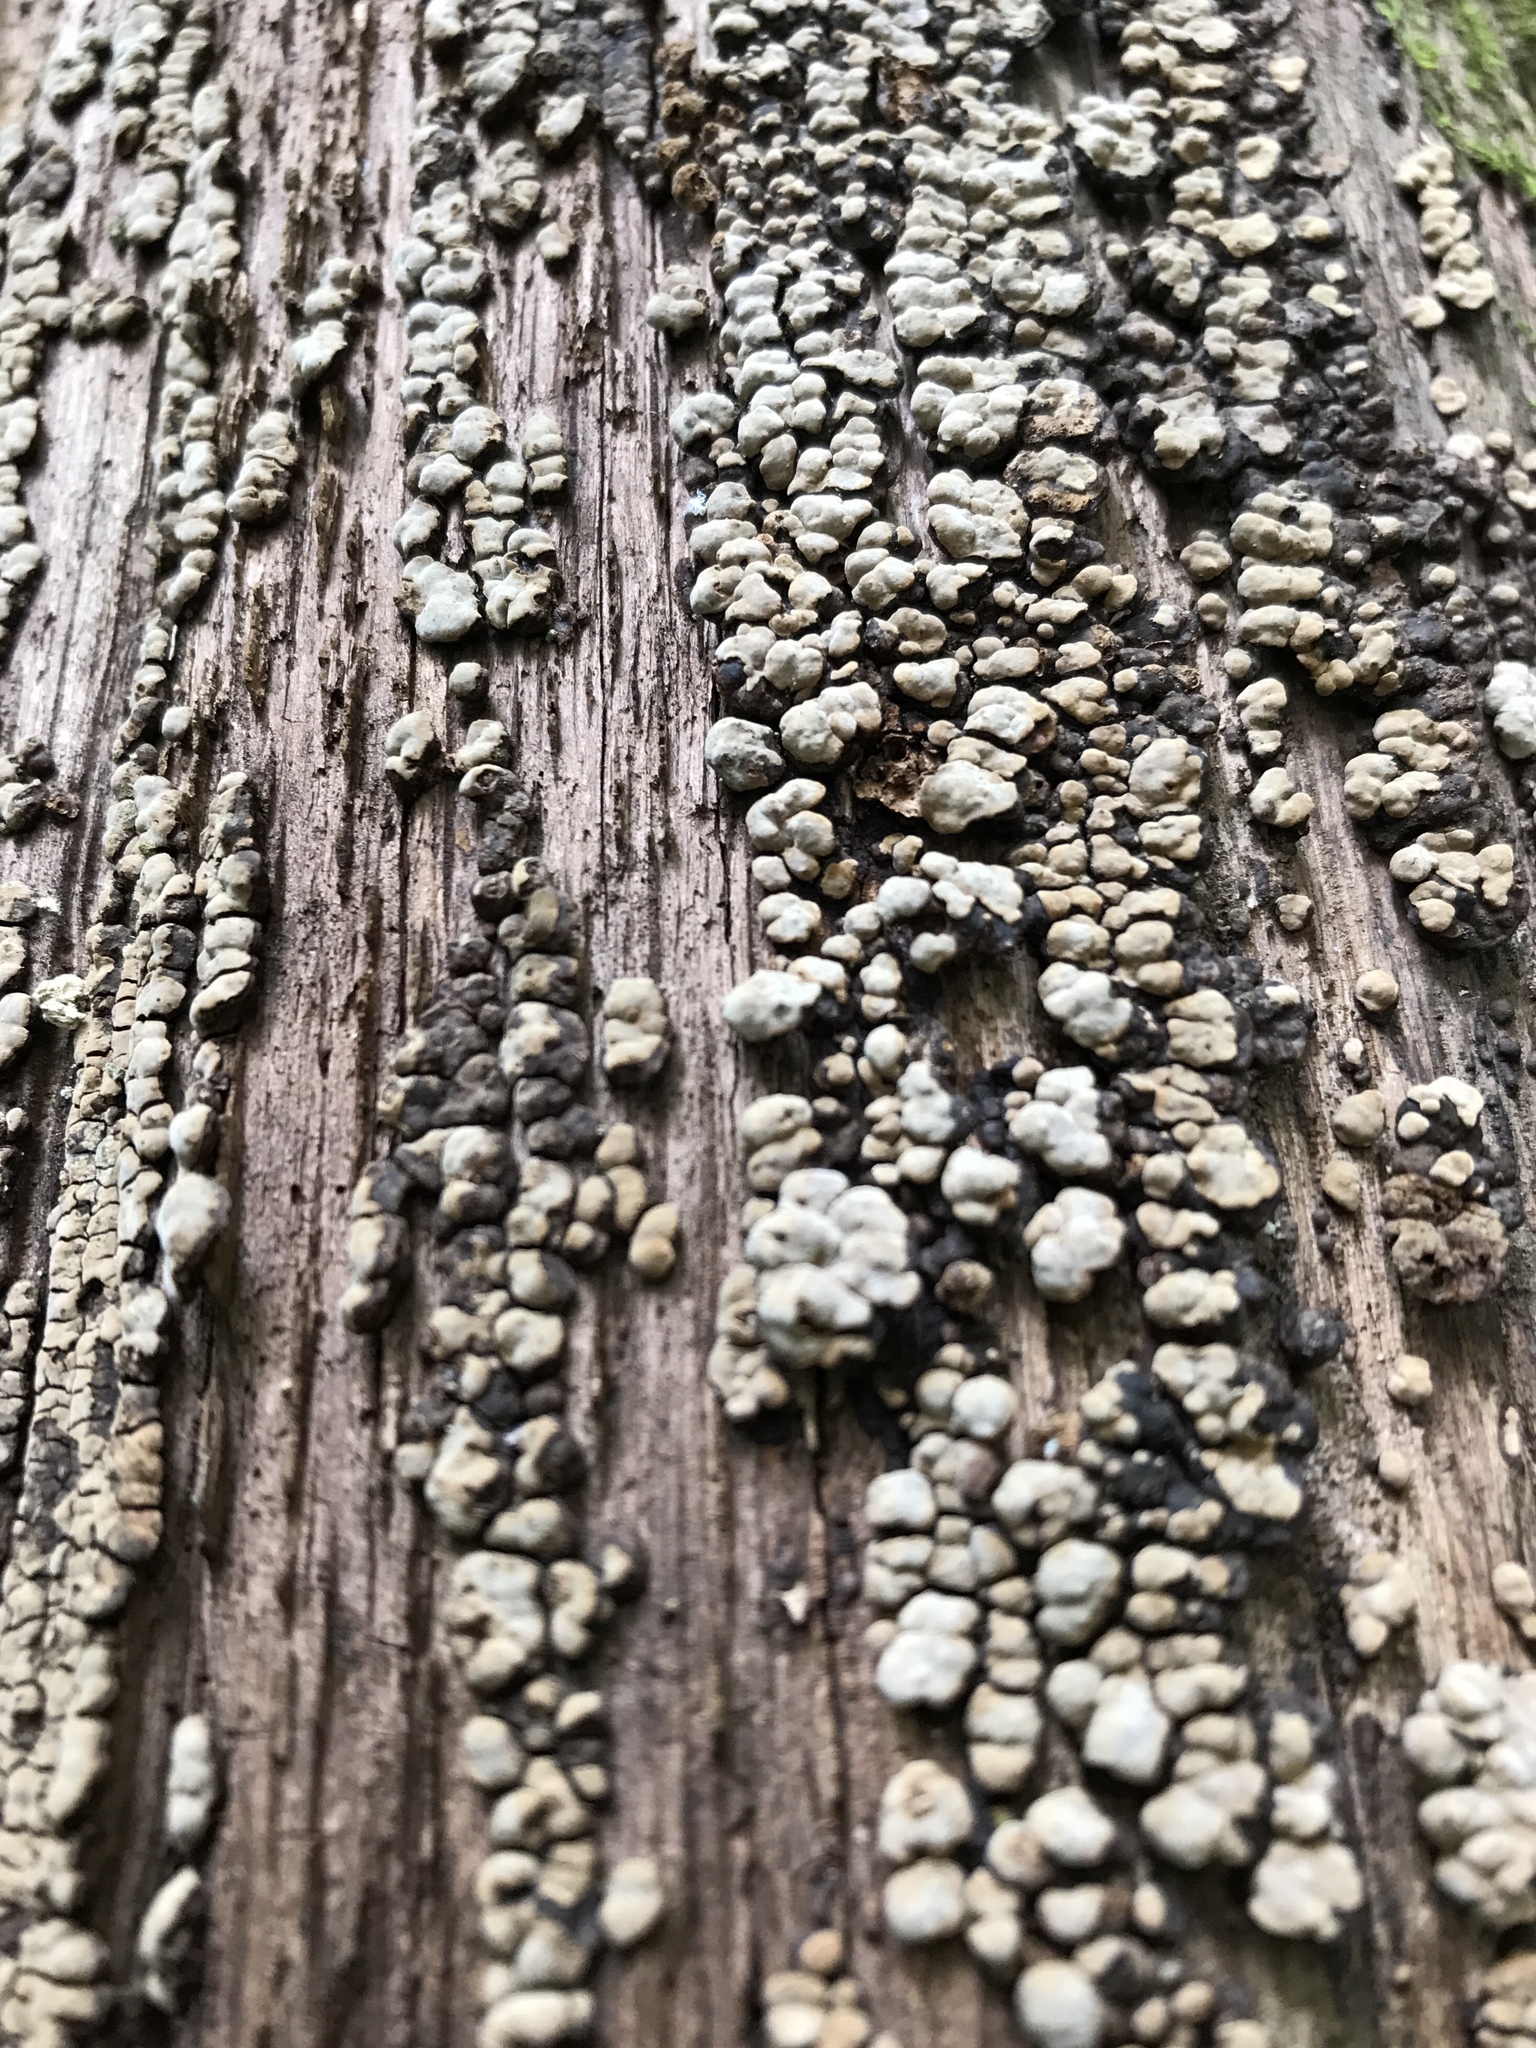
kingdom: Fungi
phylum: Basidiomycota
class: Agaricomycetes
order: Russulales
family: Stereaceae
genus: Xylobolus
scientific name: Xylobolus frustulatus
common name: Ceramic parchment
